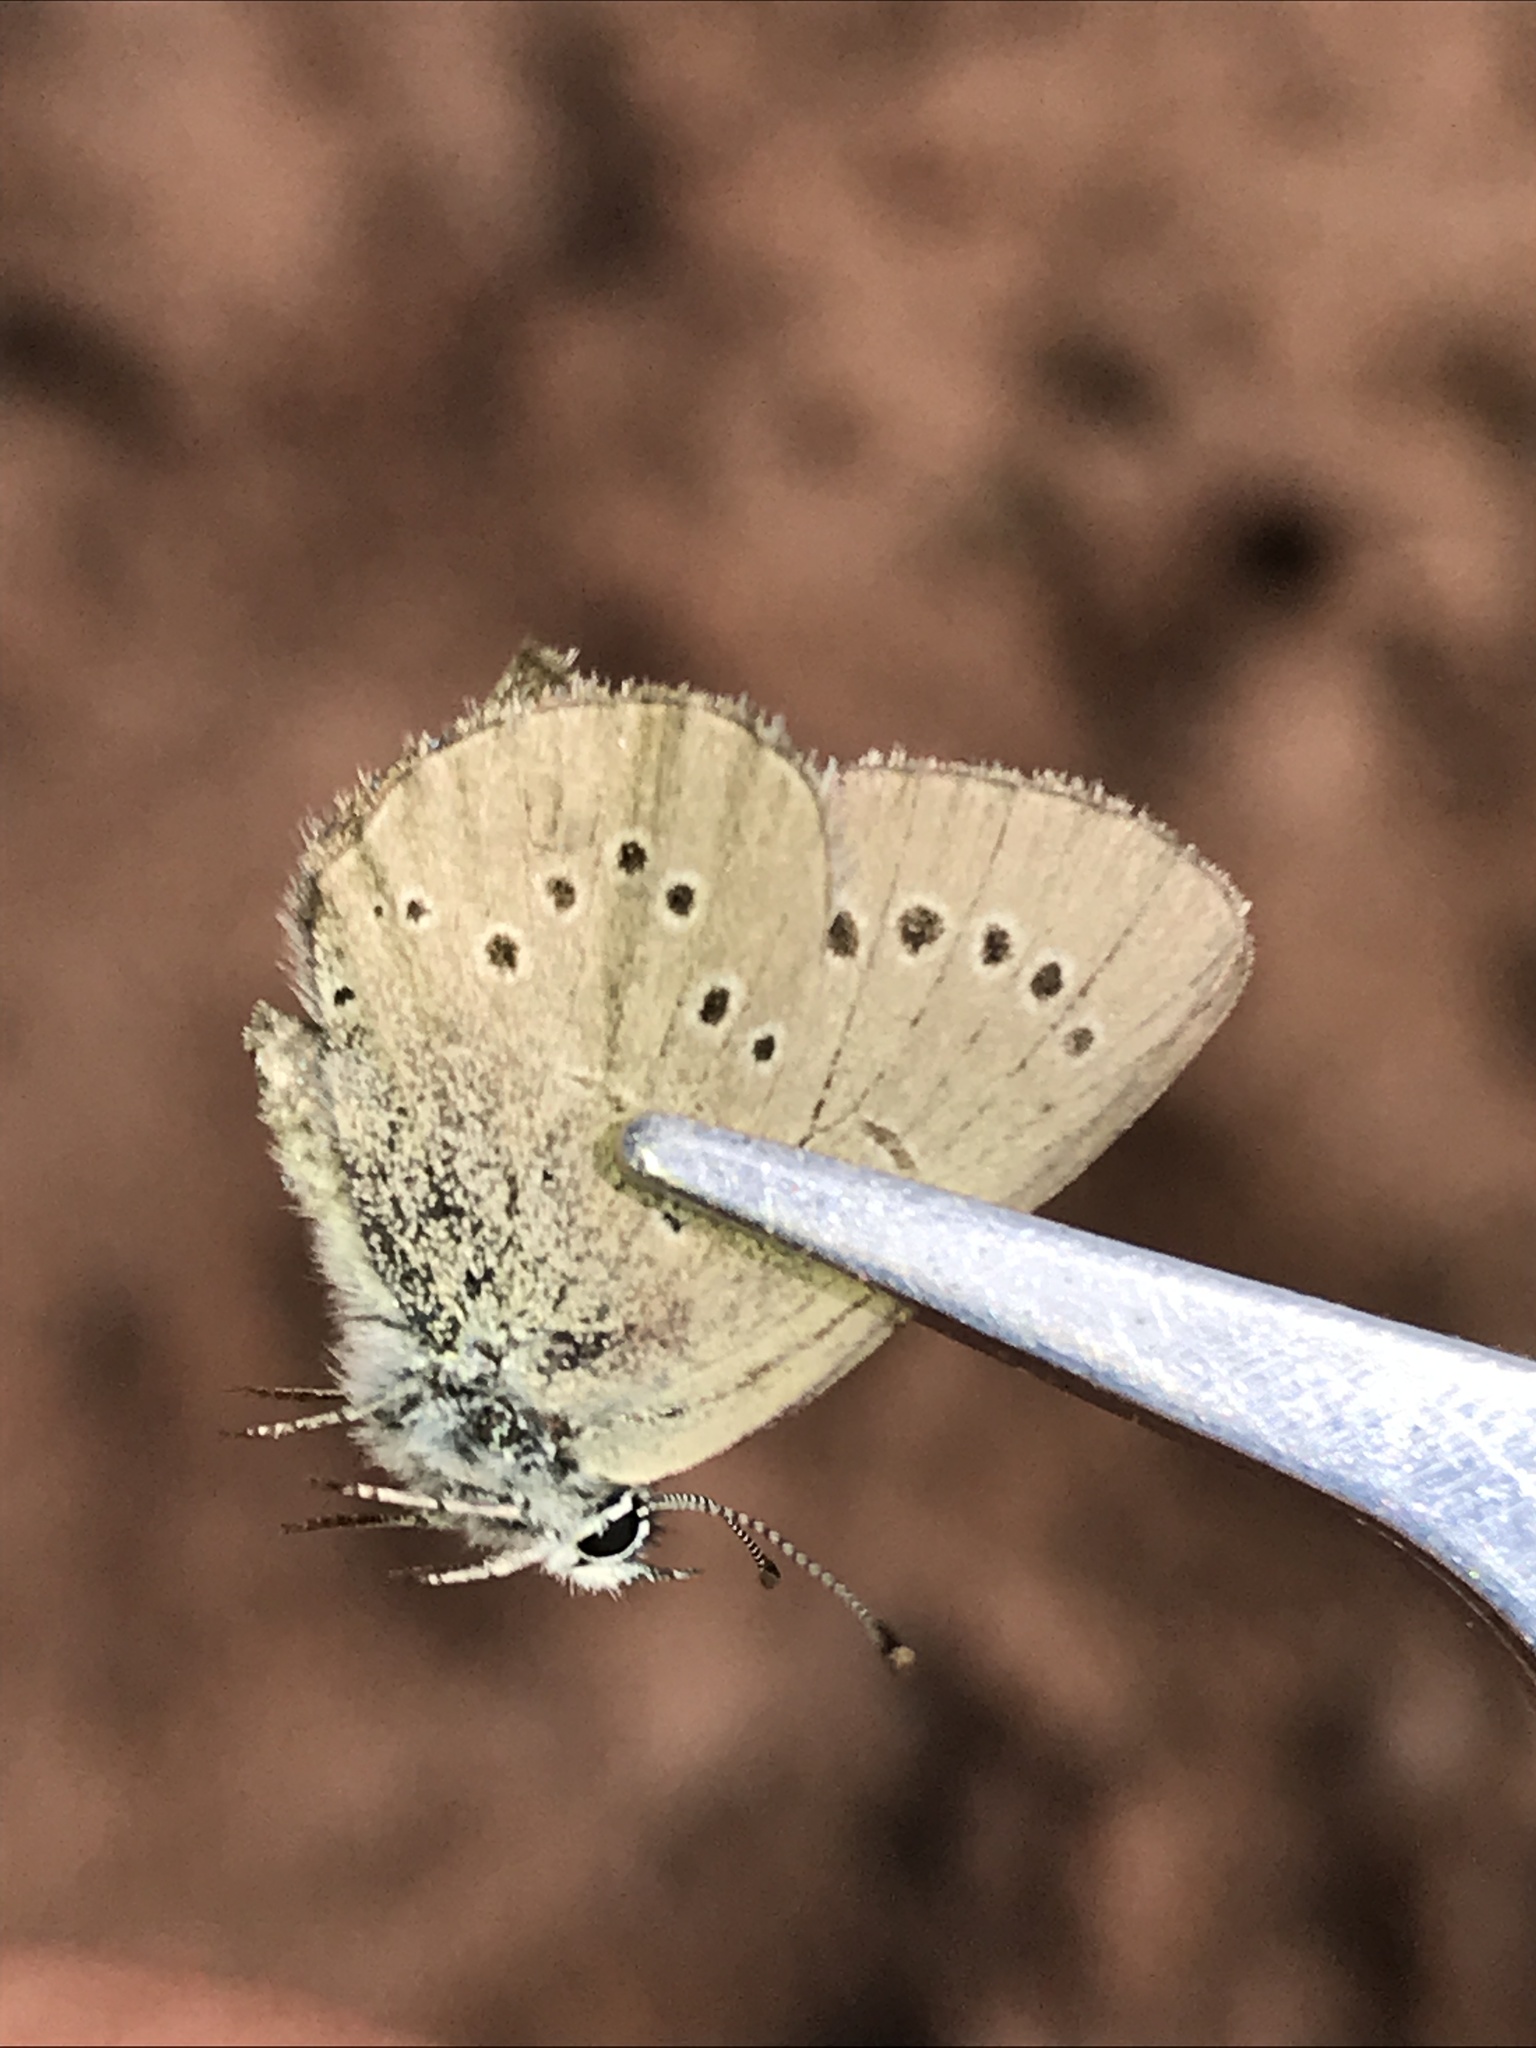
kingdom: Animalia
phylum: Arthropoda
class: Insecta
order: Lepidoptera
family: Lycaenidae
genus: Glaucopsyche
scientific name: Glaucopsyche lygdamus
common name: Silvery blue
